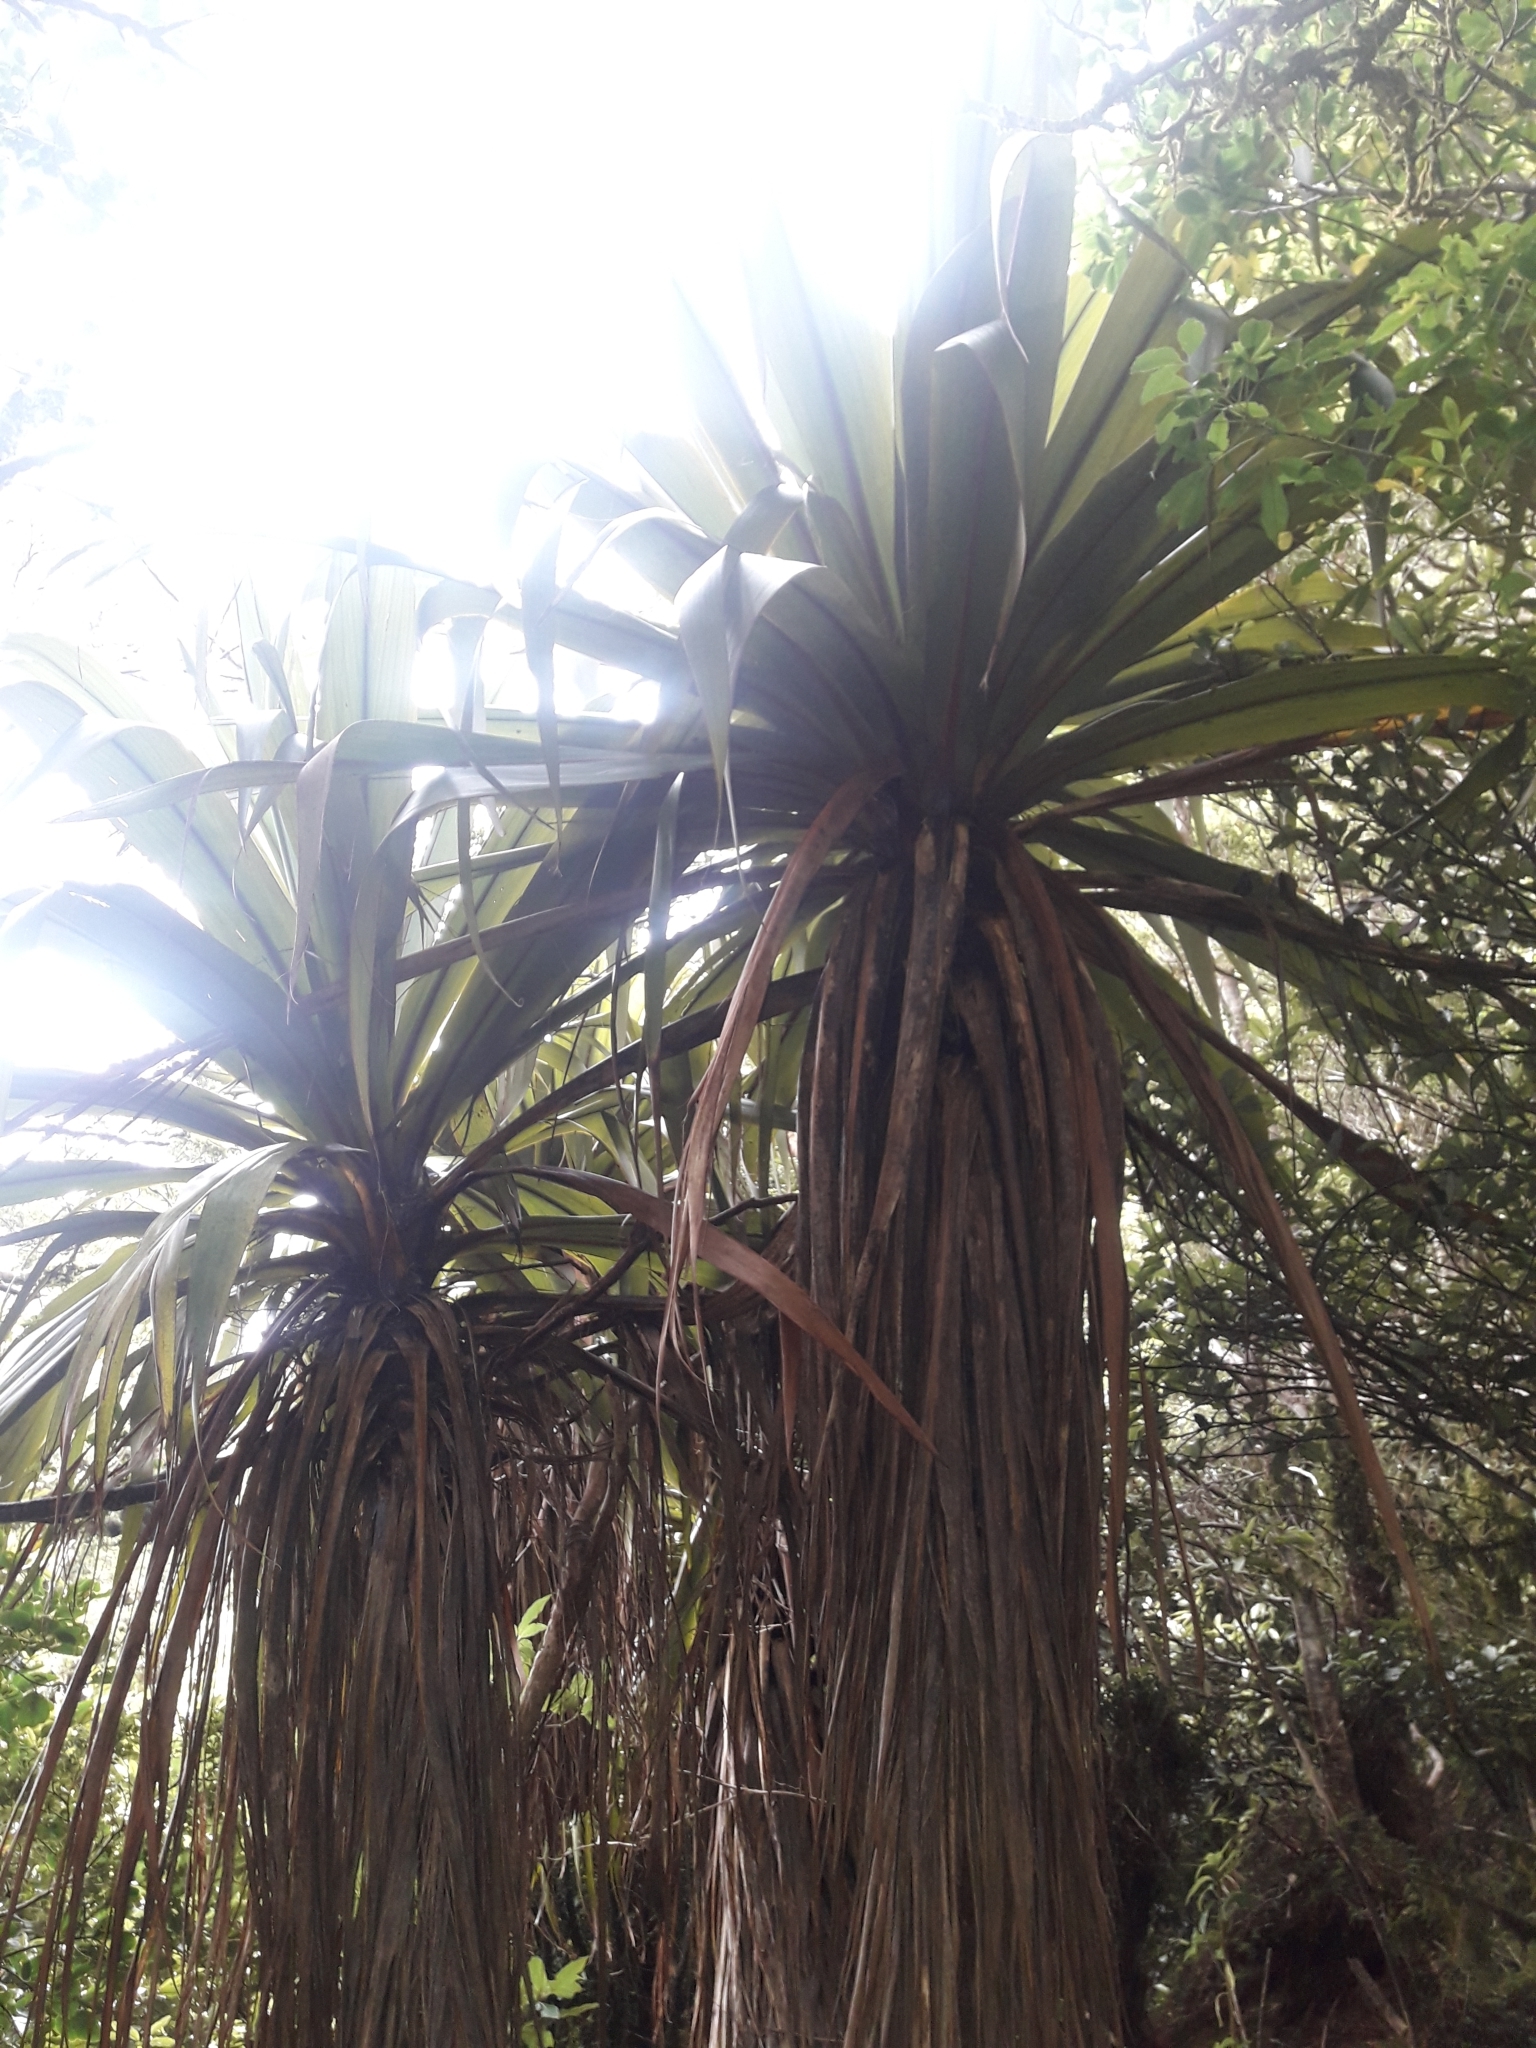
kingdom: Plantae
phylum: Tracheophyta
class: Liliopsida
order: Asparagales
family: Asparagaceae
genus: Cordyline
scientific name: Cordyline indivisa
